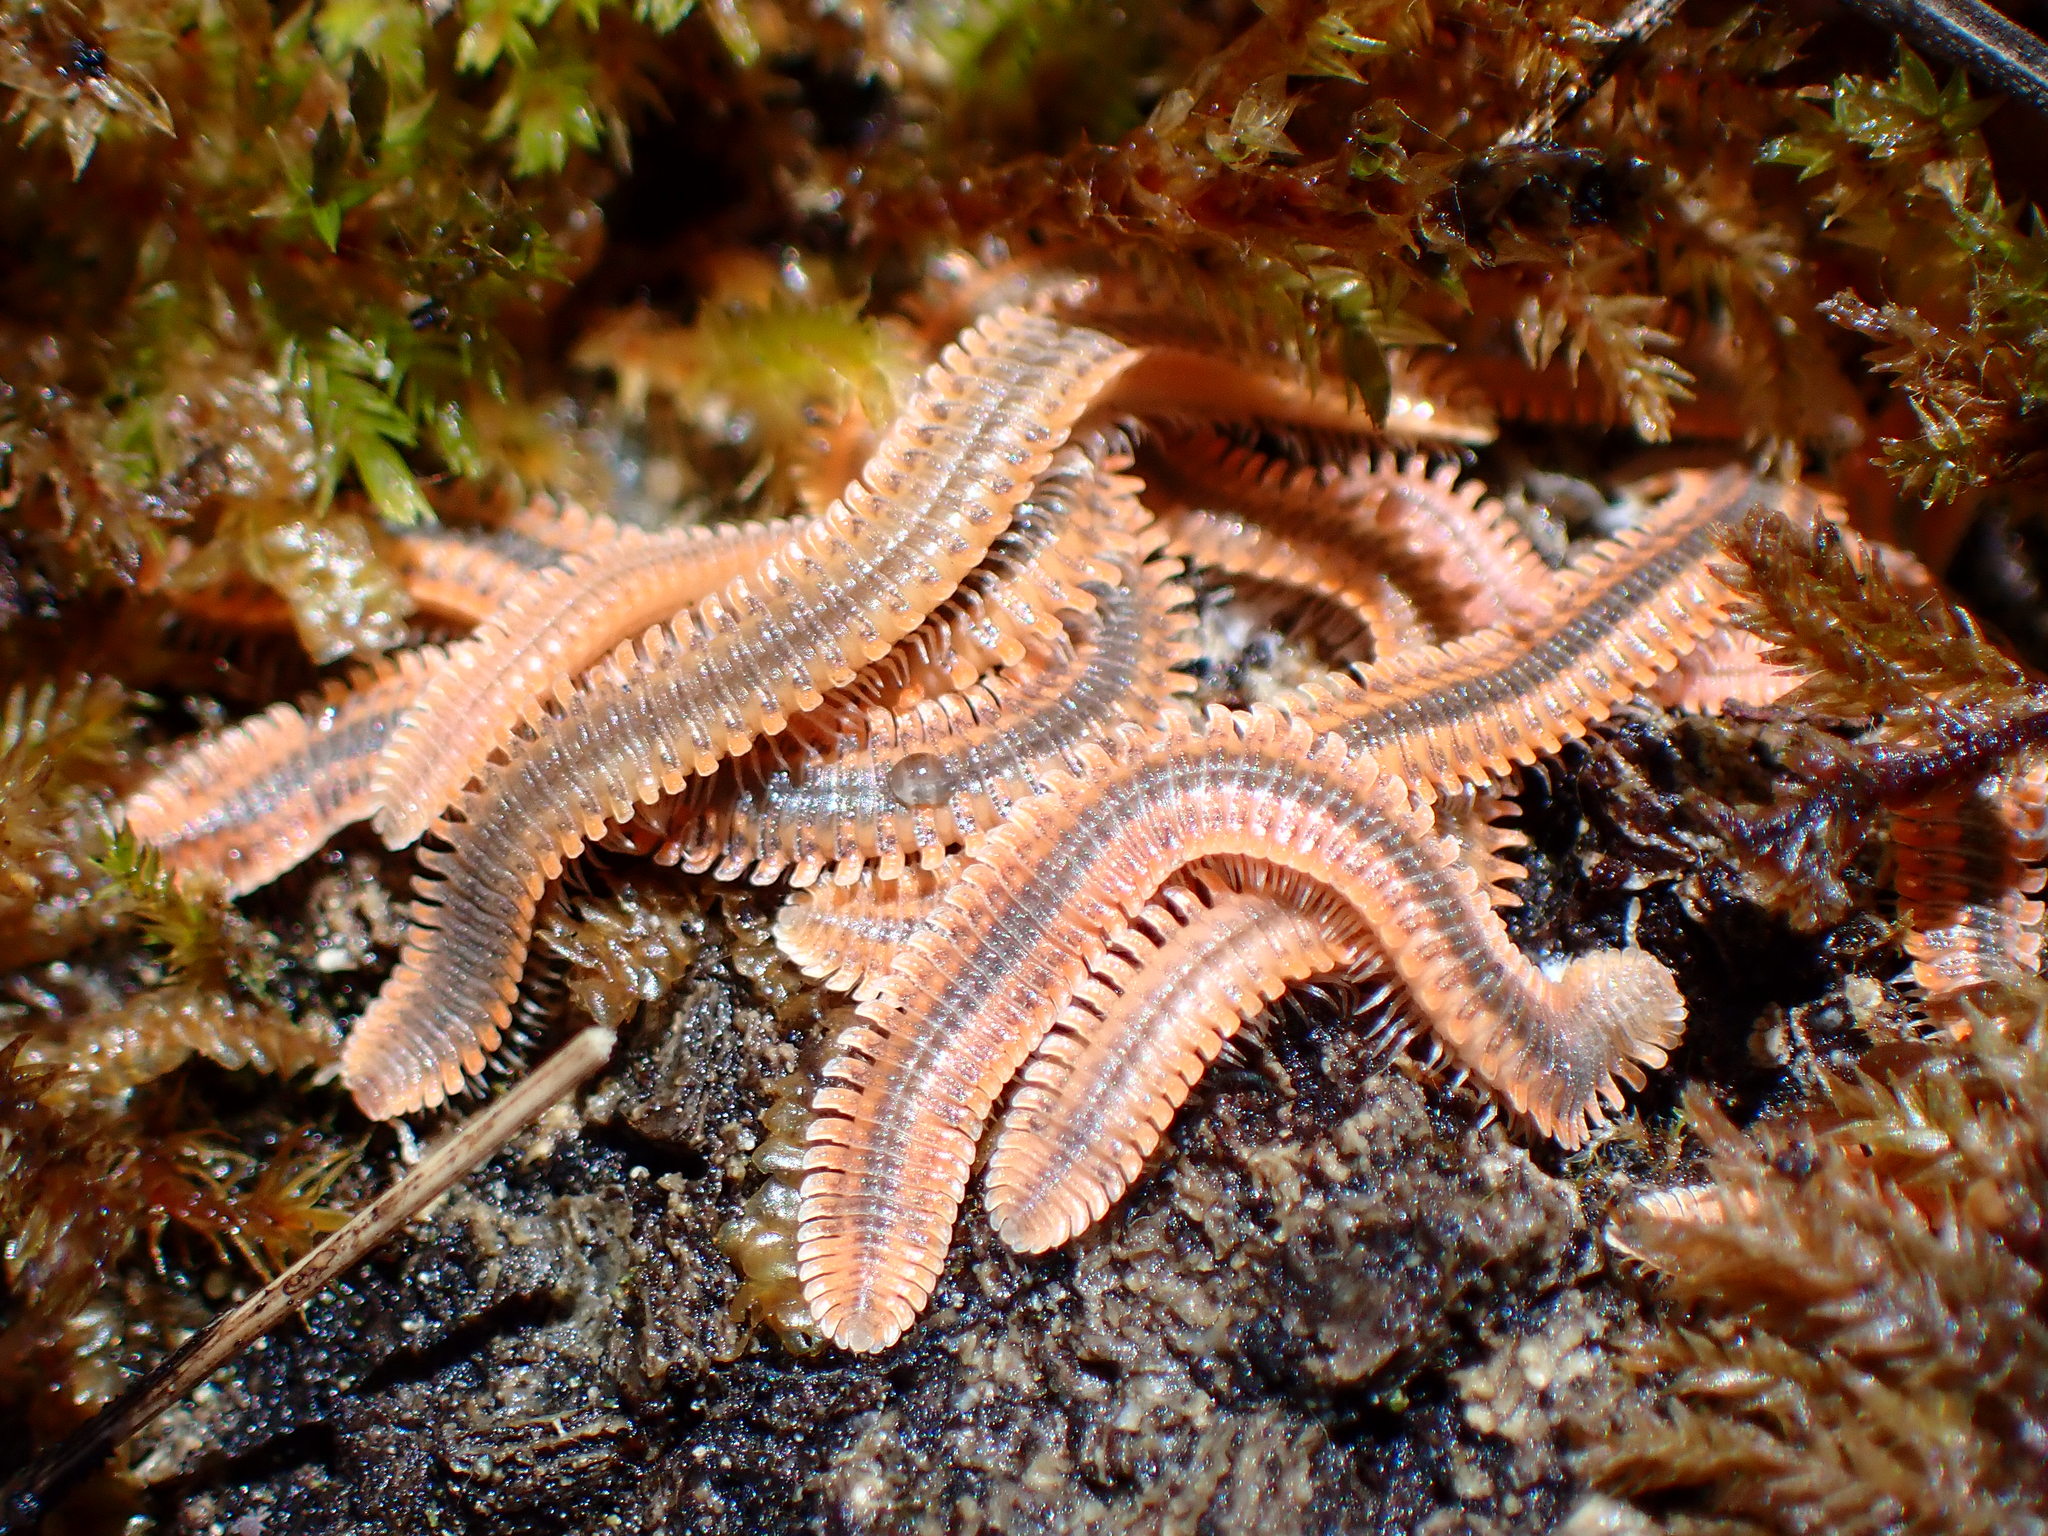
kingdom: Animalia
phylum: Arthropoda
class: Diplopoda
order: Platydesmida
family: Andrognathidae
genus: Brachycybe
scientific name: Brachycybe producta
